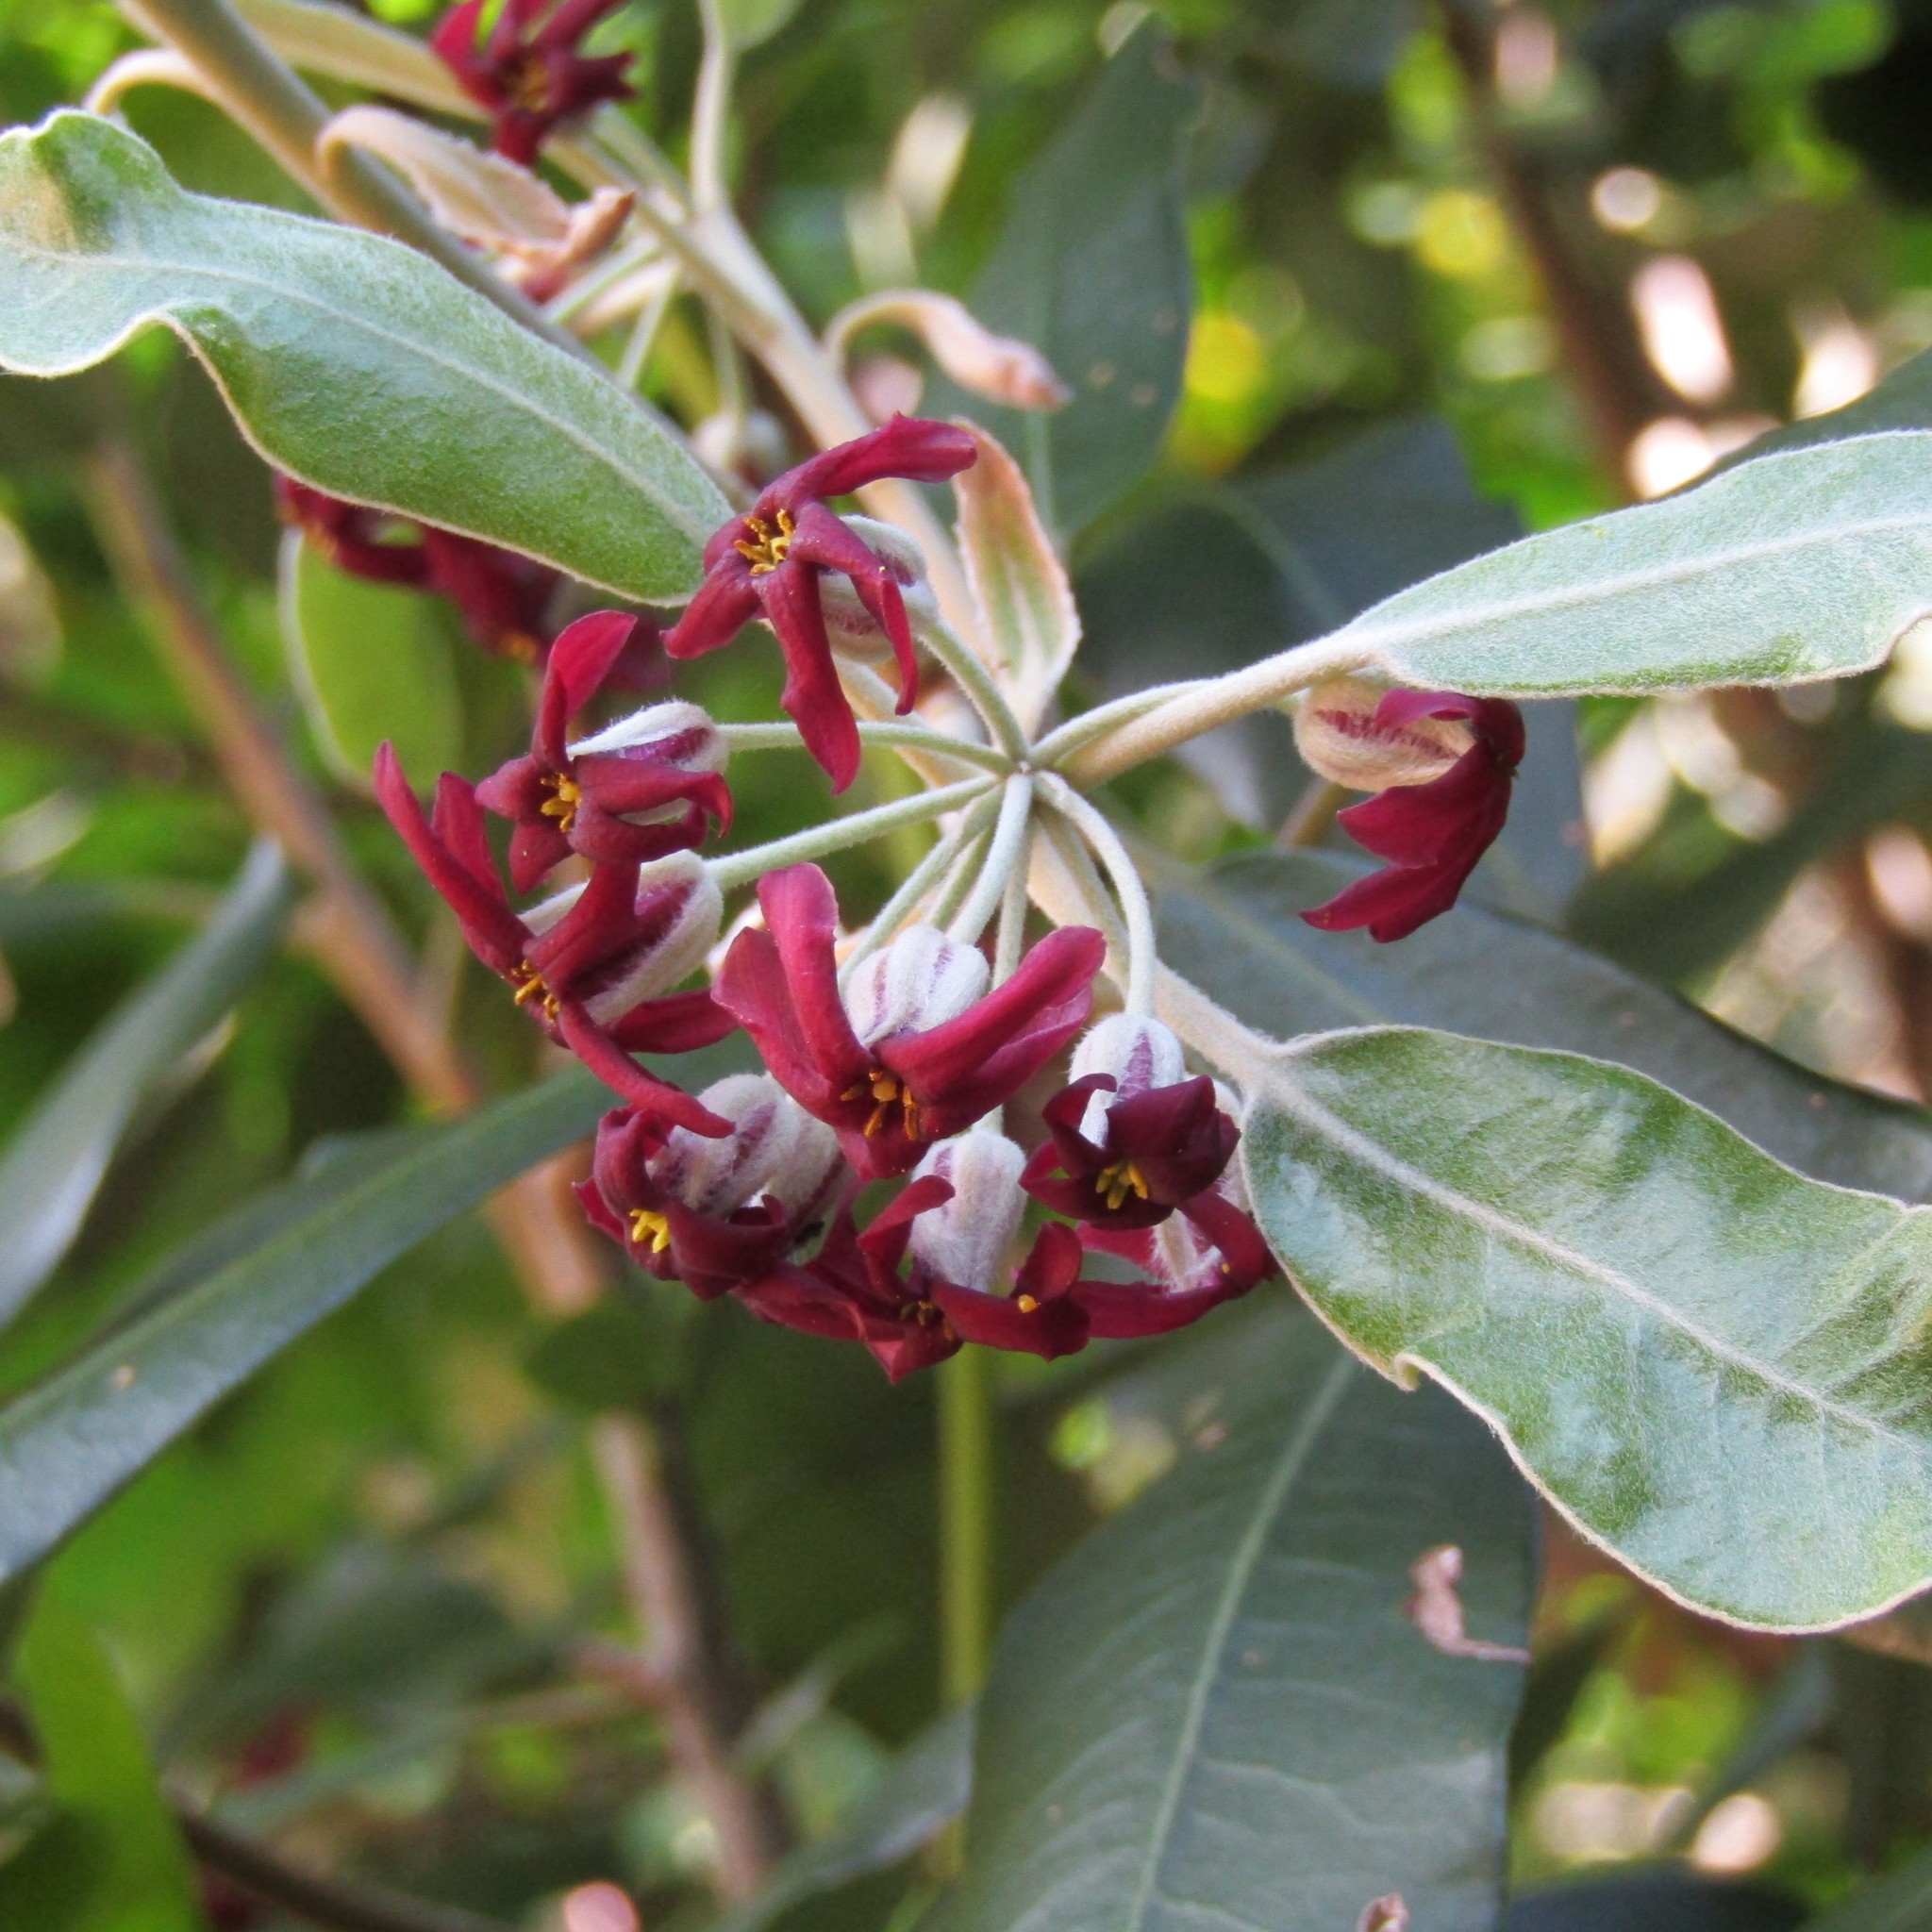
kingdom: Plantae
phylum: Tracheophyta
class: Magnoliopsida
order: Apiales
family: Pittosporaceae
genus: Pittosporum
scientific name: Pittosporum ralphii
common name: Ralph's desertwillow
